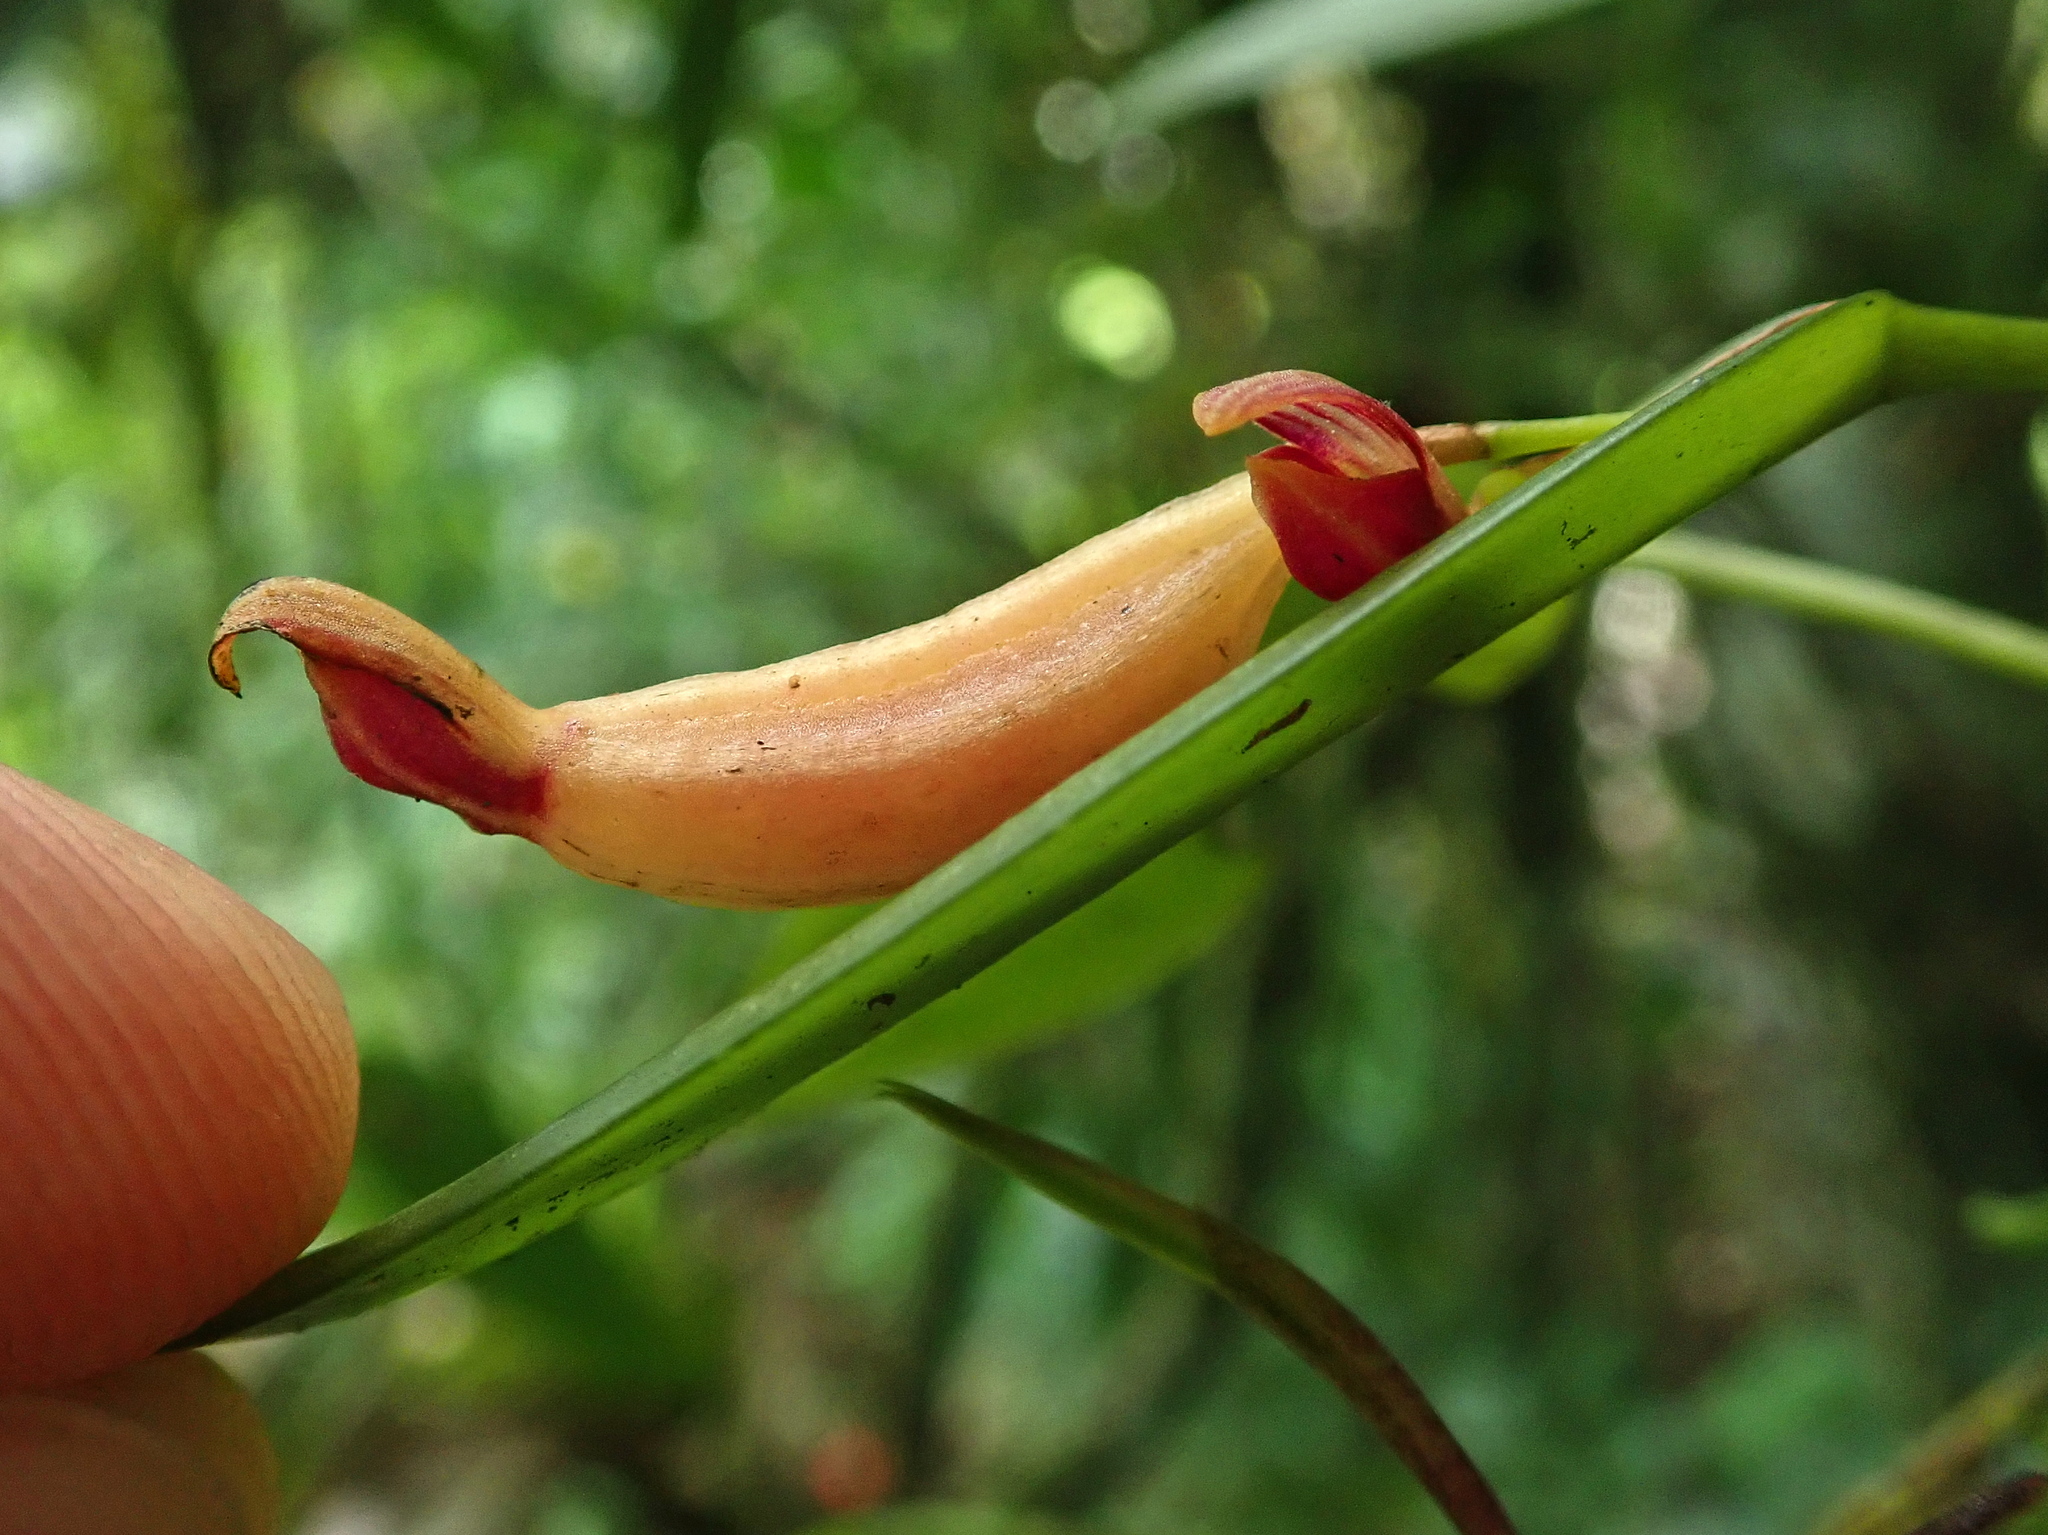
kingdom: Plantae
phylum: Tracheophyta
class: Liliopsida
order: Asparagales
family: Orchidaceae
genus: Acianthera
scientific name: Acianthera glanduligera
